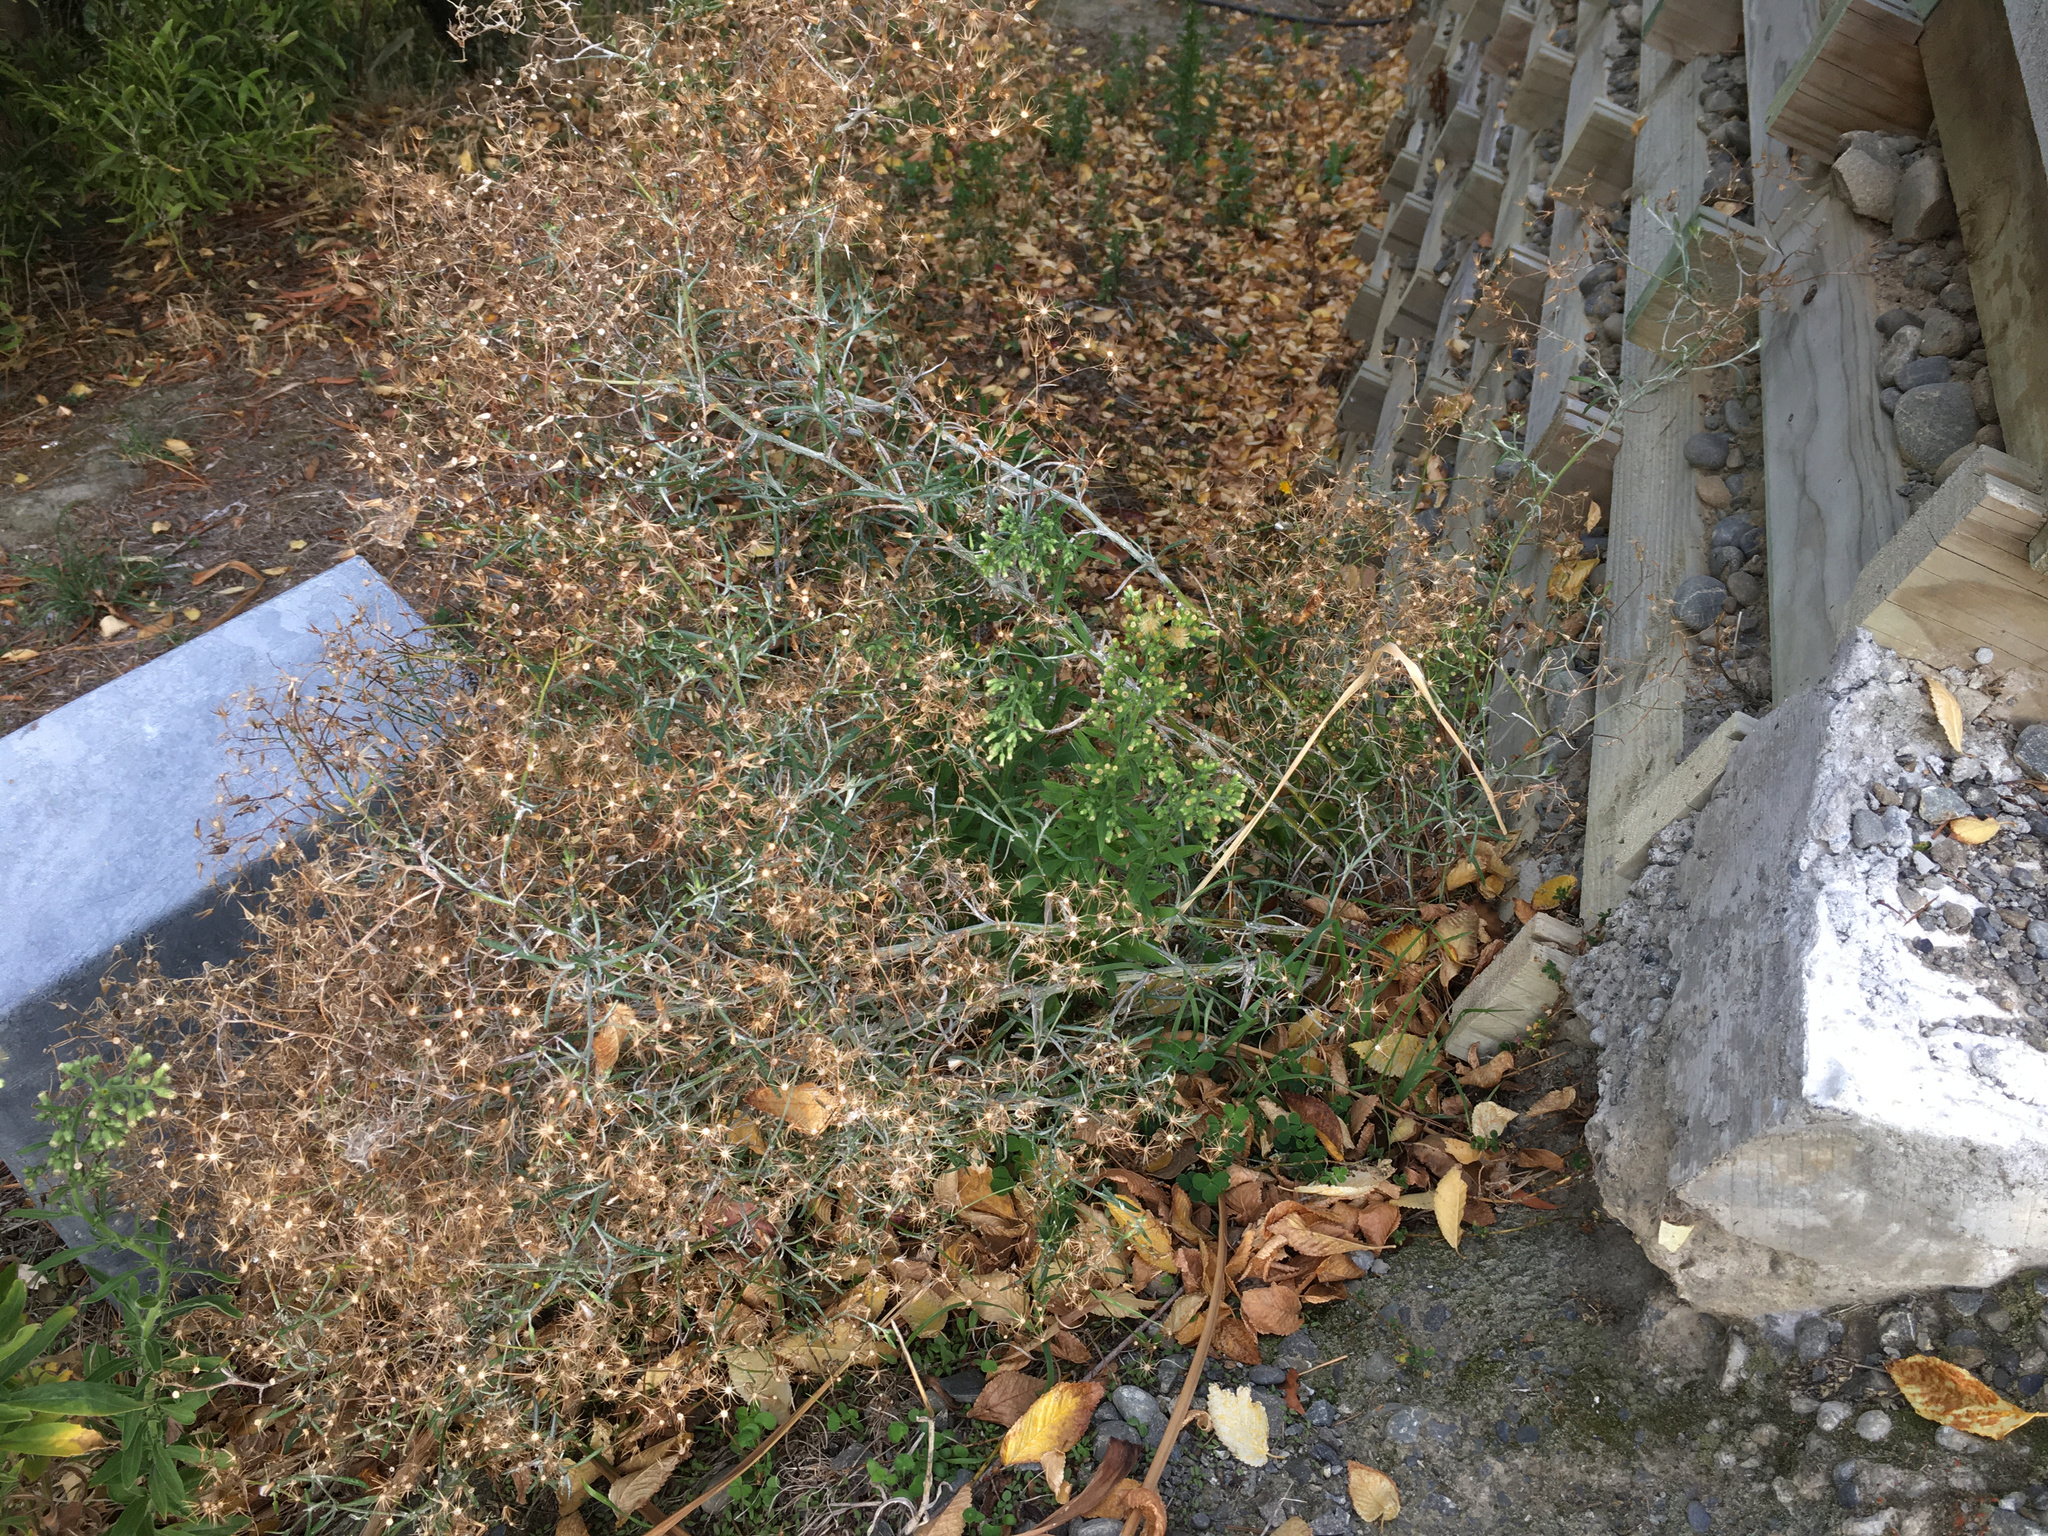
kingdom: Plantae
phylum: Tracheophyta
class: Magnoliopsida
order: Asterales
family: Asteraceae
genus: Senecio
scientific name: Senecio quadridentatus
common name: Cotton fireweed
